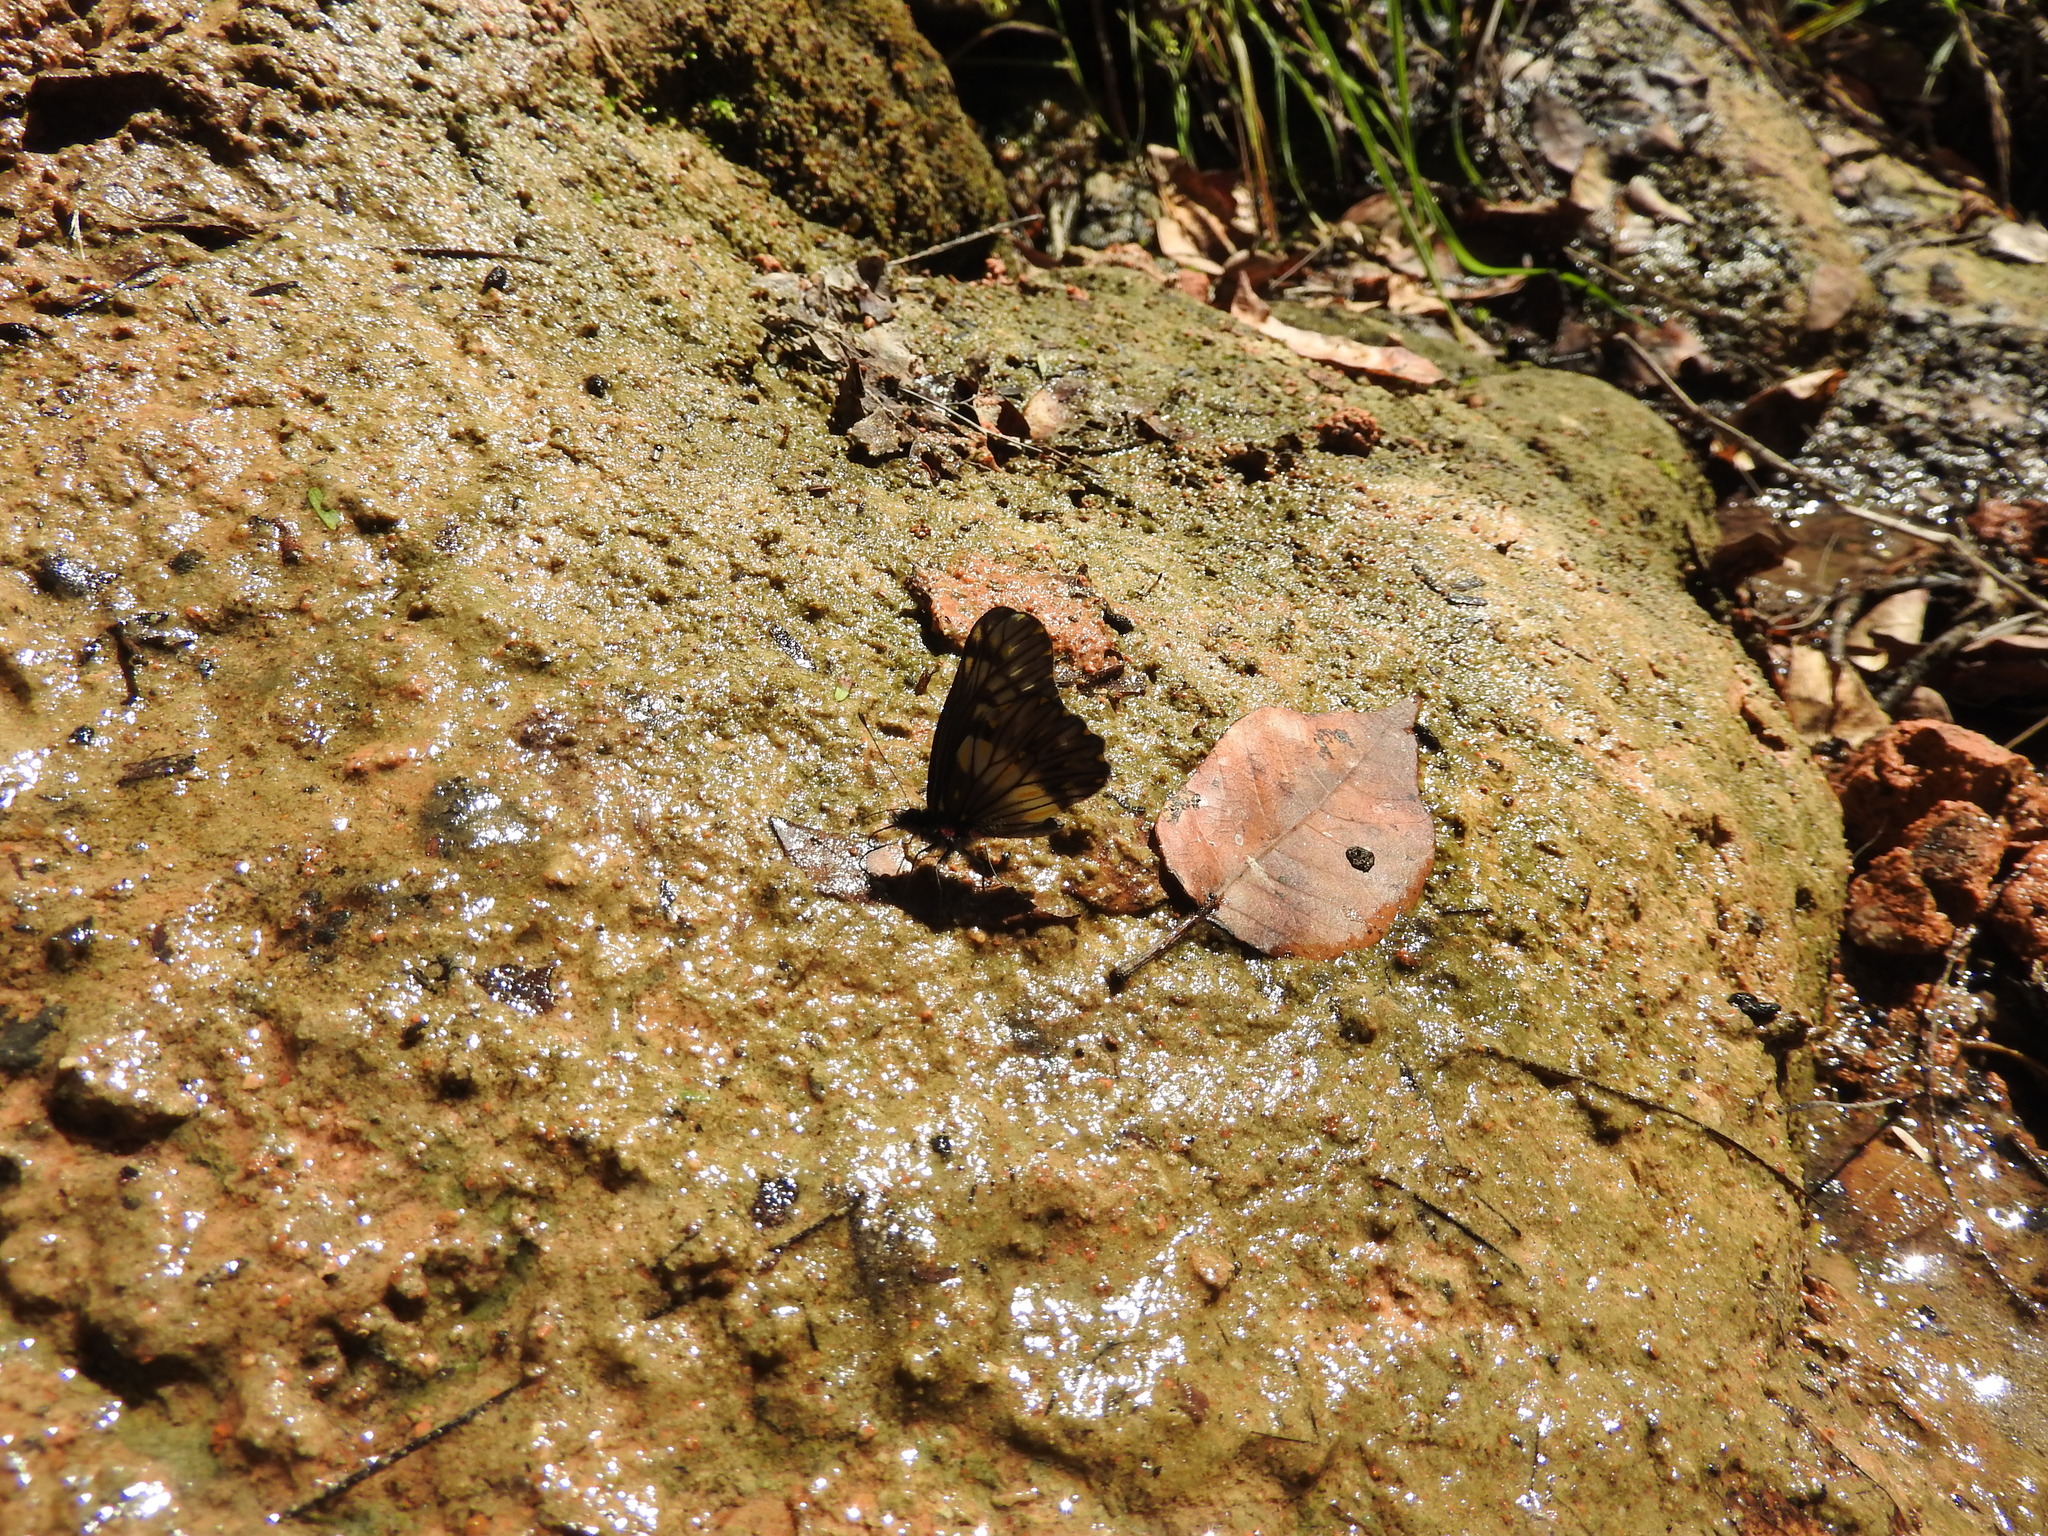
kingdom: Animalia
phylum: Arthropoda
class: Insecta
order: Lepidoptera
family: Pieridae
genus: Archonias
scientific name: Archonias nimbice
